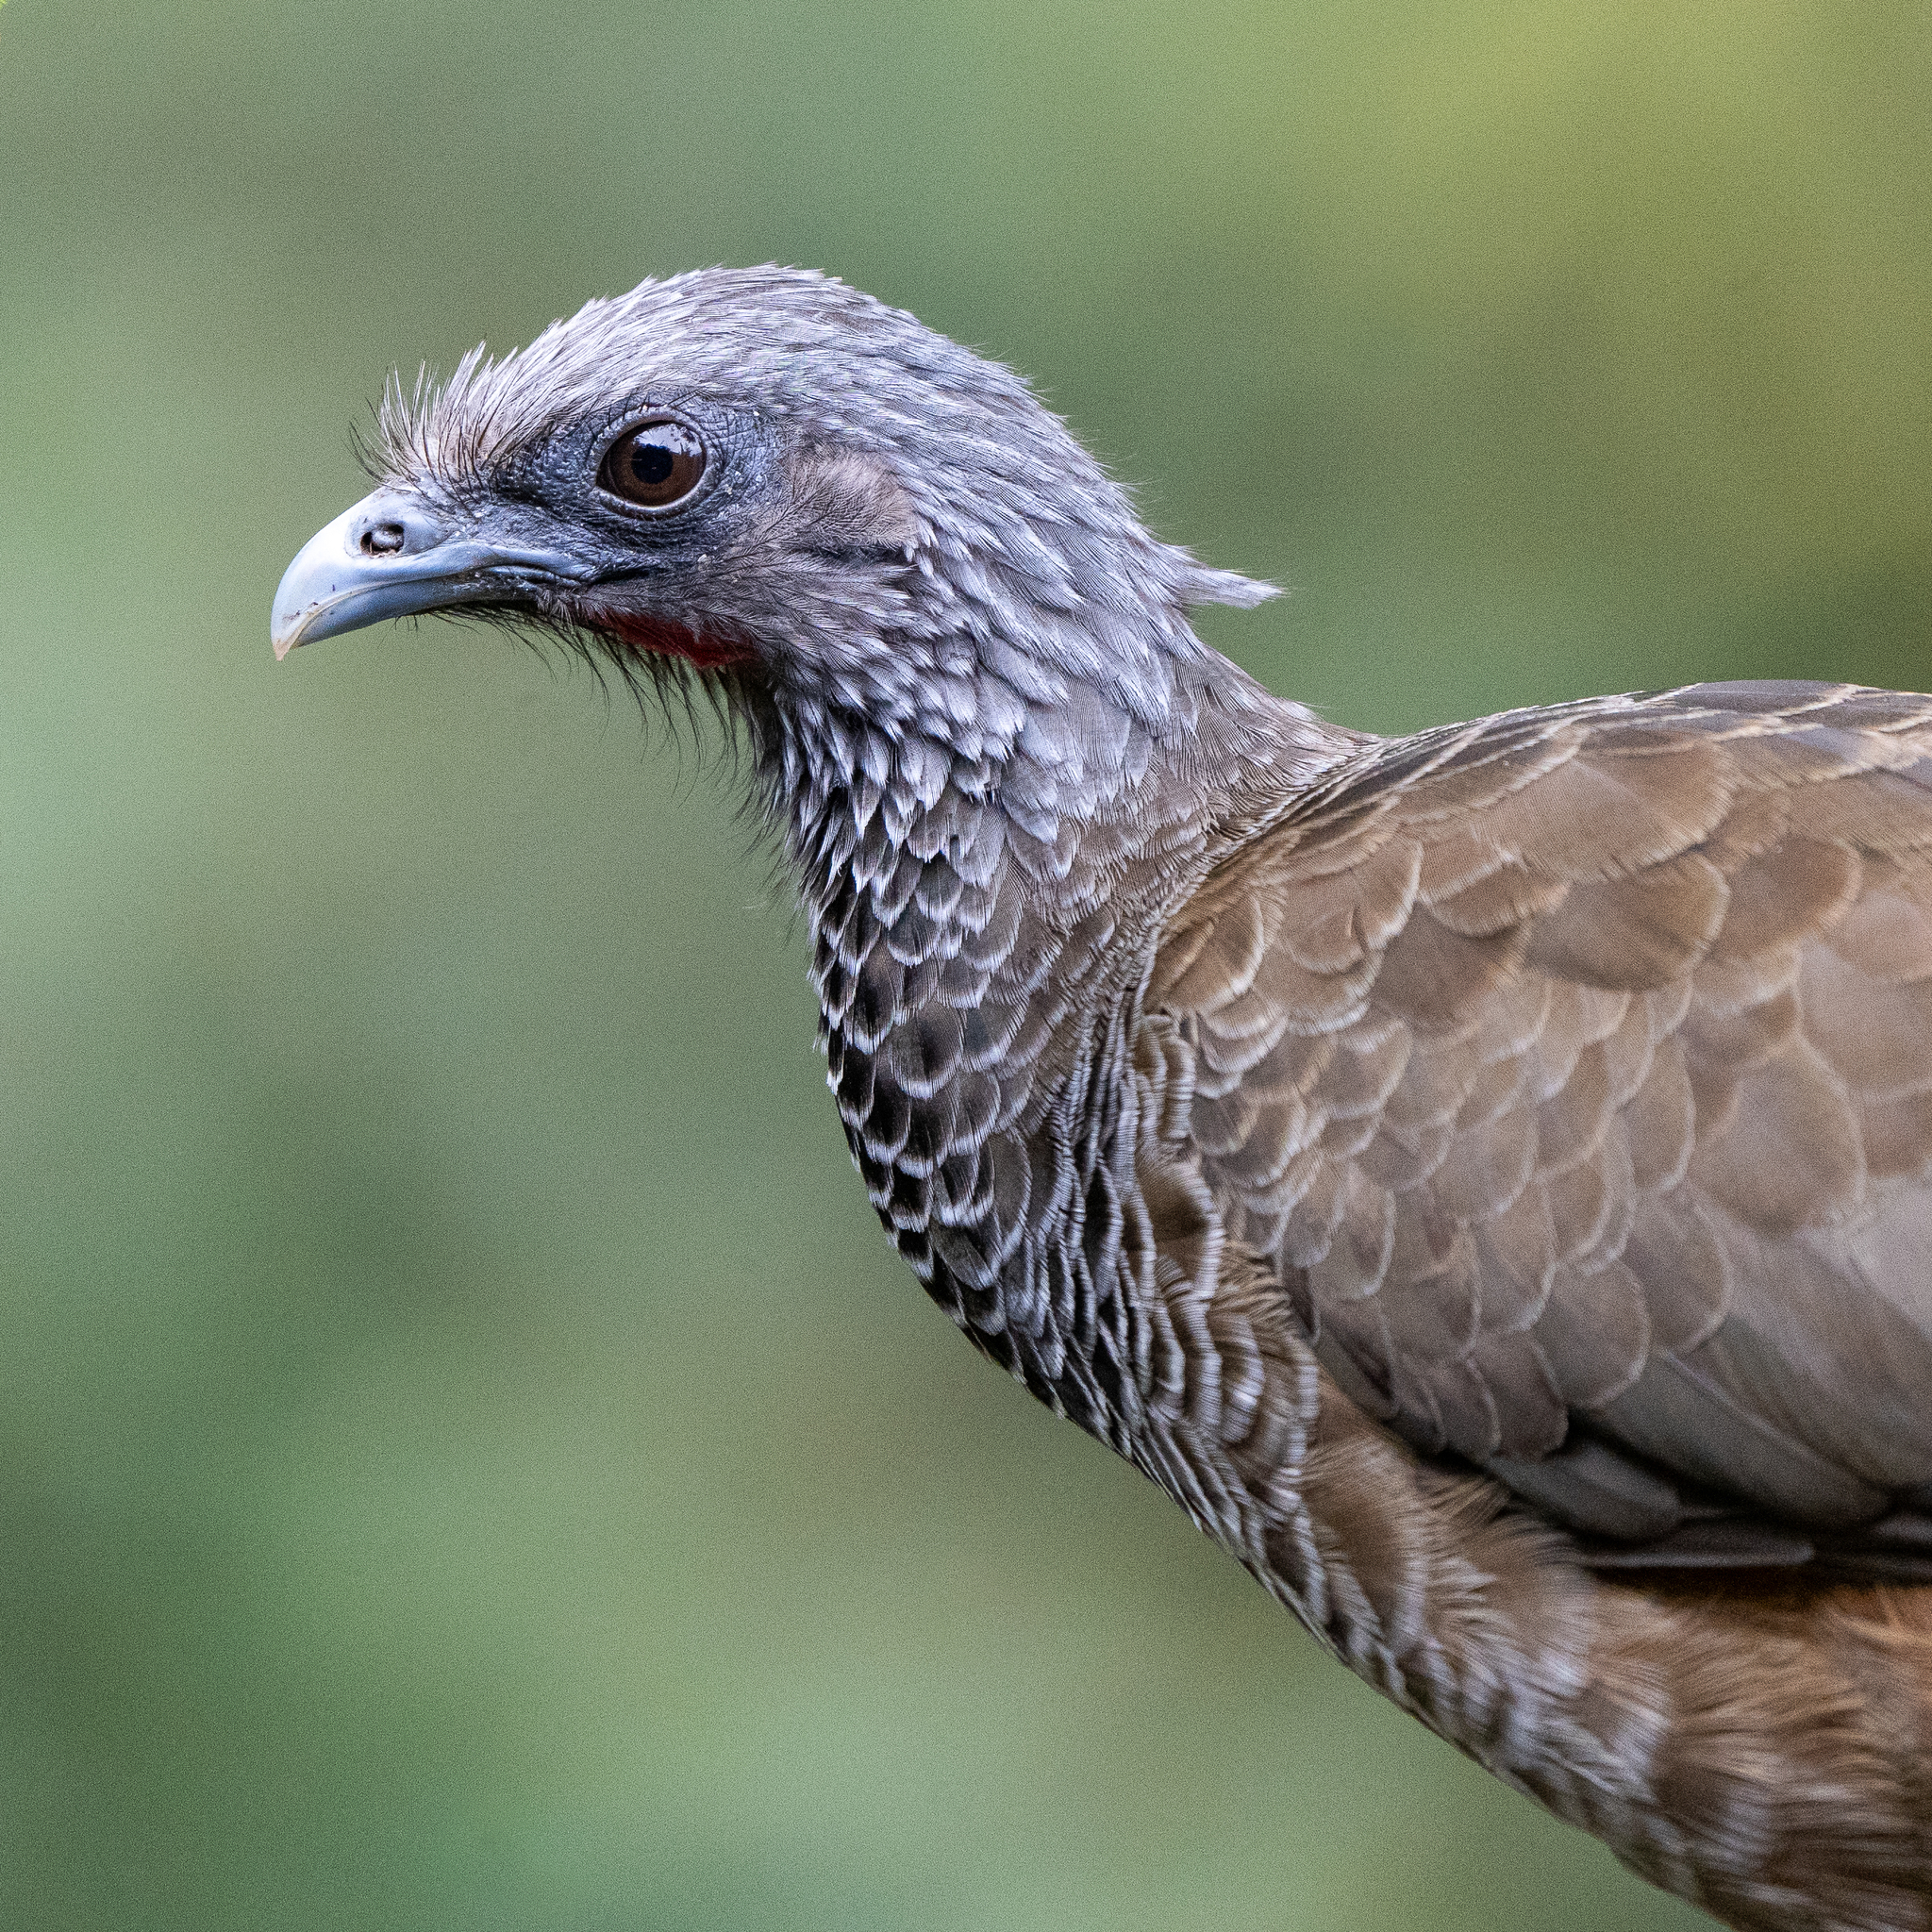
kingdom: Animalia
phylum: Chordata
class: Aves
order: Galliformes
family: Cracidae
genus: Ortalis
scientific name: Ortalis columbiana
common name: Colombian chachalaca
